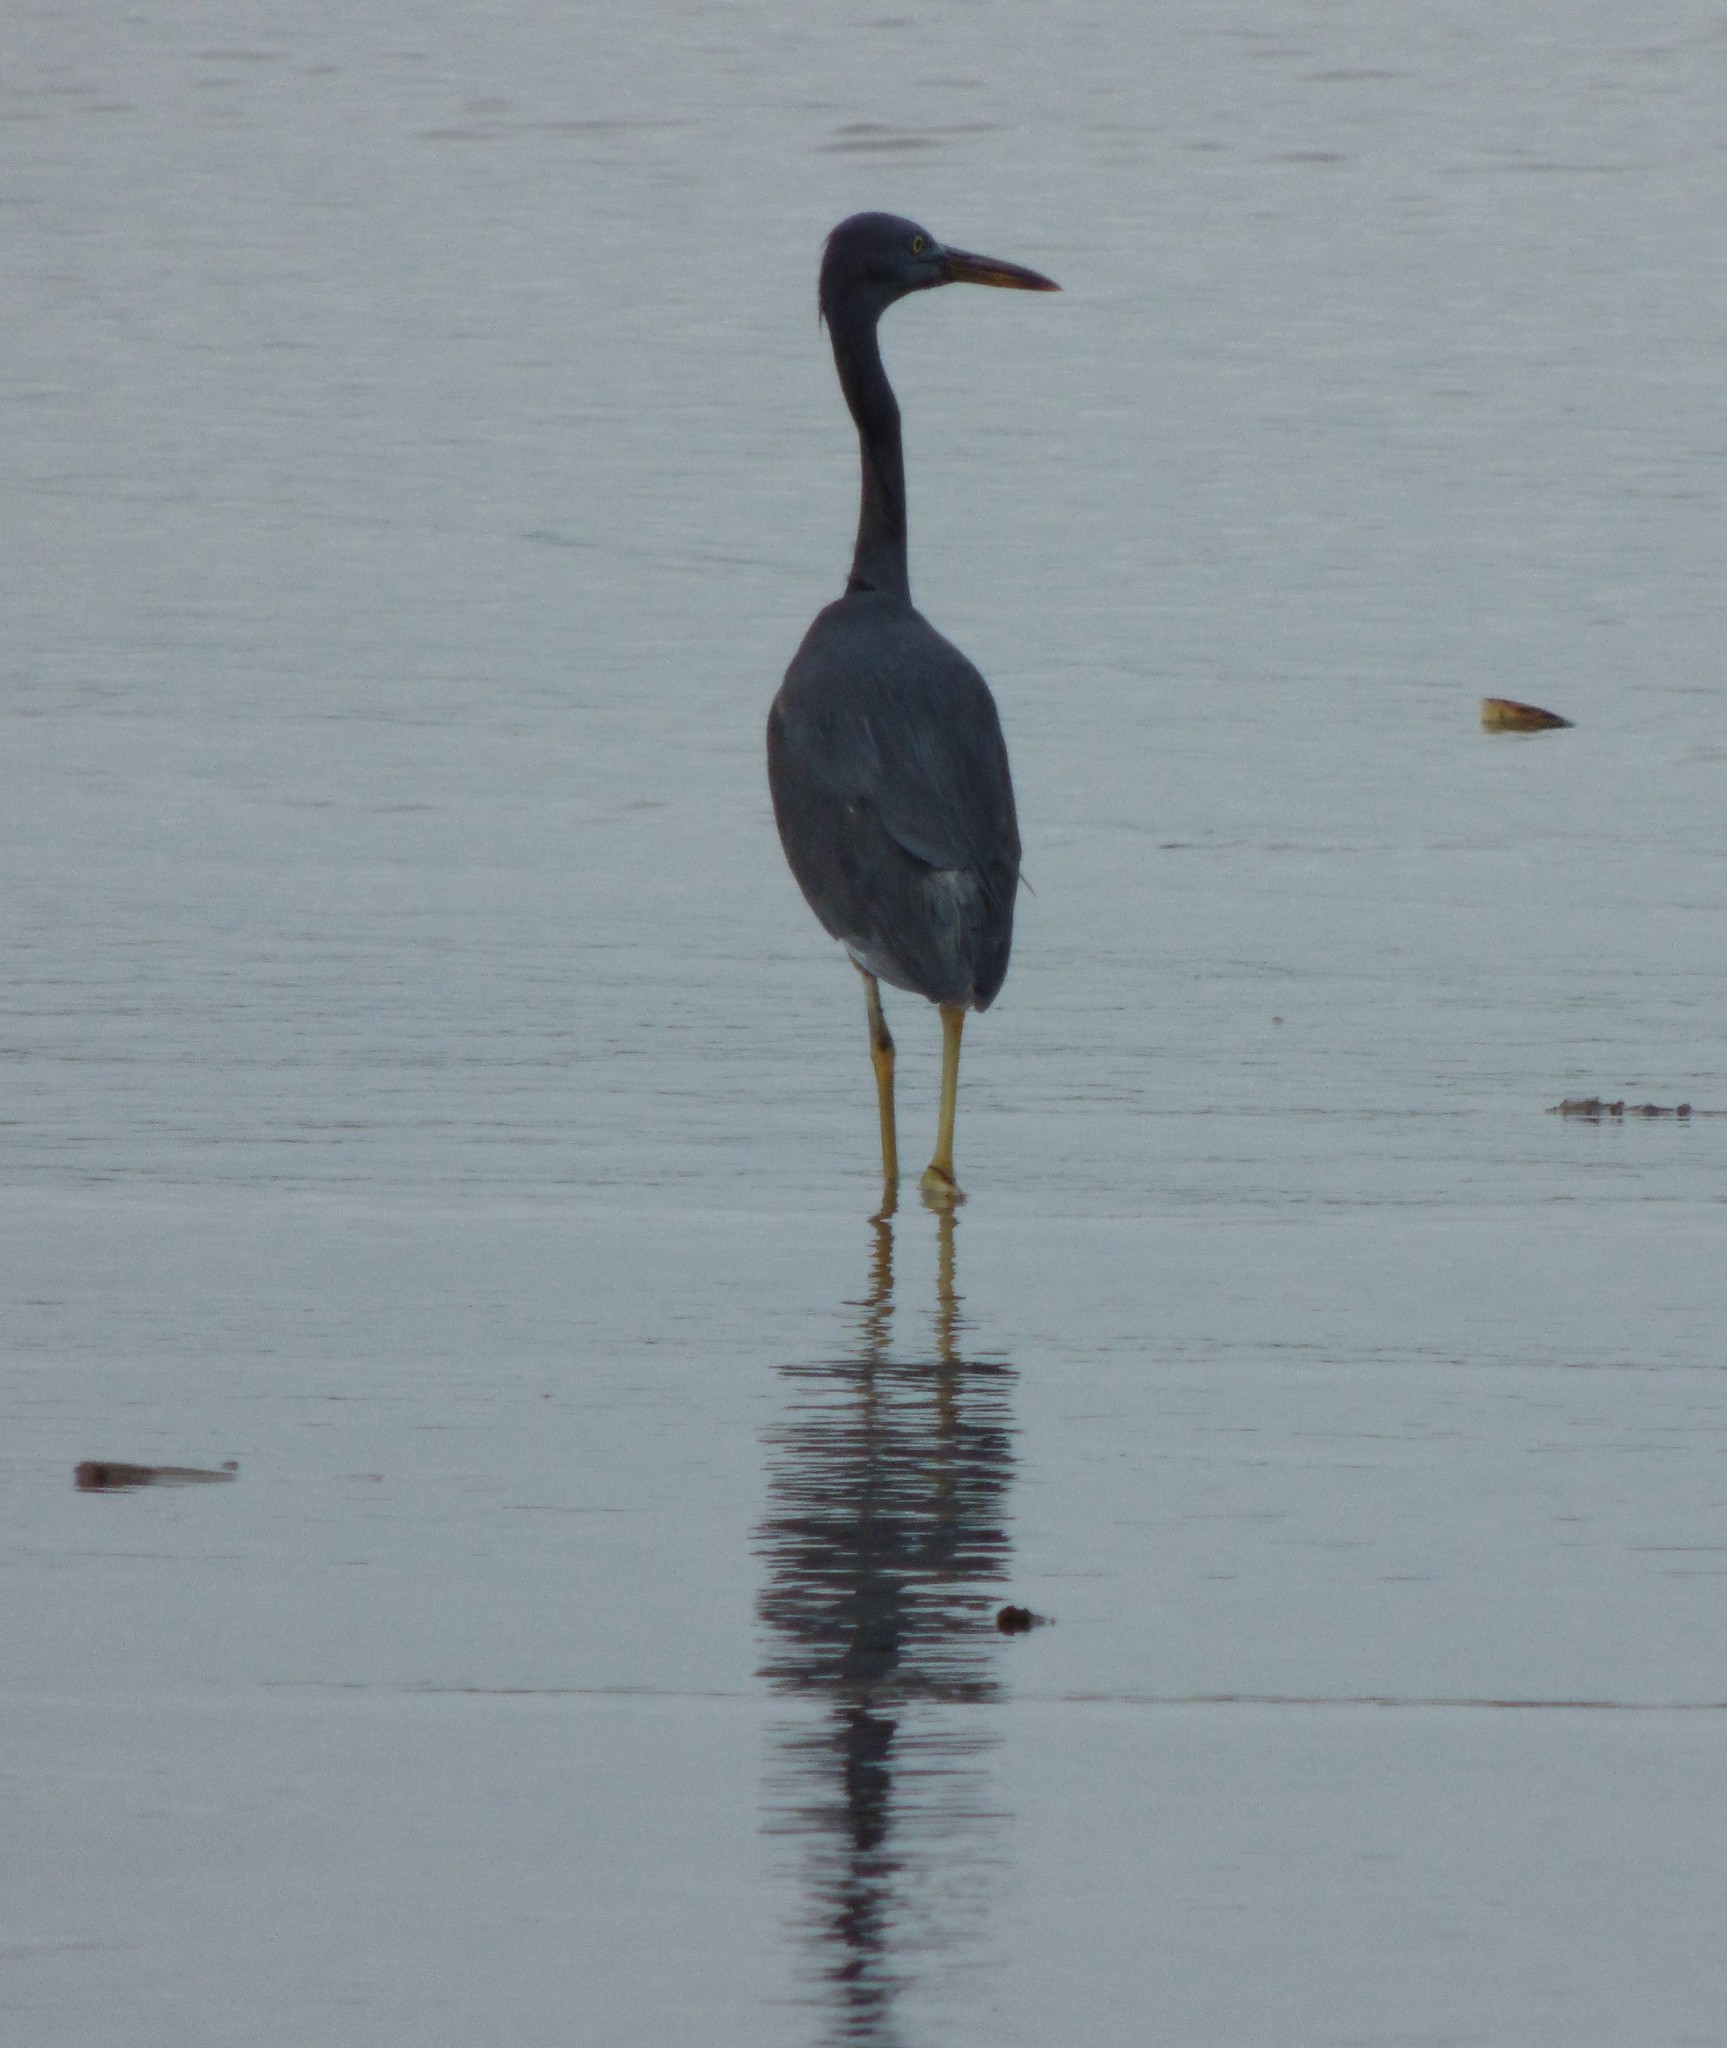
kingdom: Animalia
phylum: Chordata
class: Aves
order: Pelecaniformes
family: Ardeidae
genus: Egretta
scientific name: Egretta sacra
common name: Pacific reef heron
